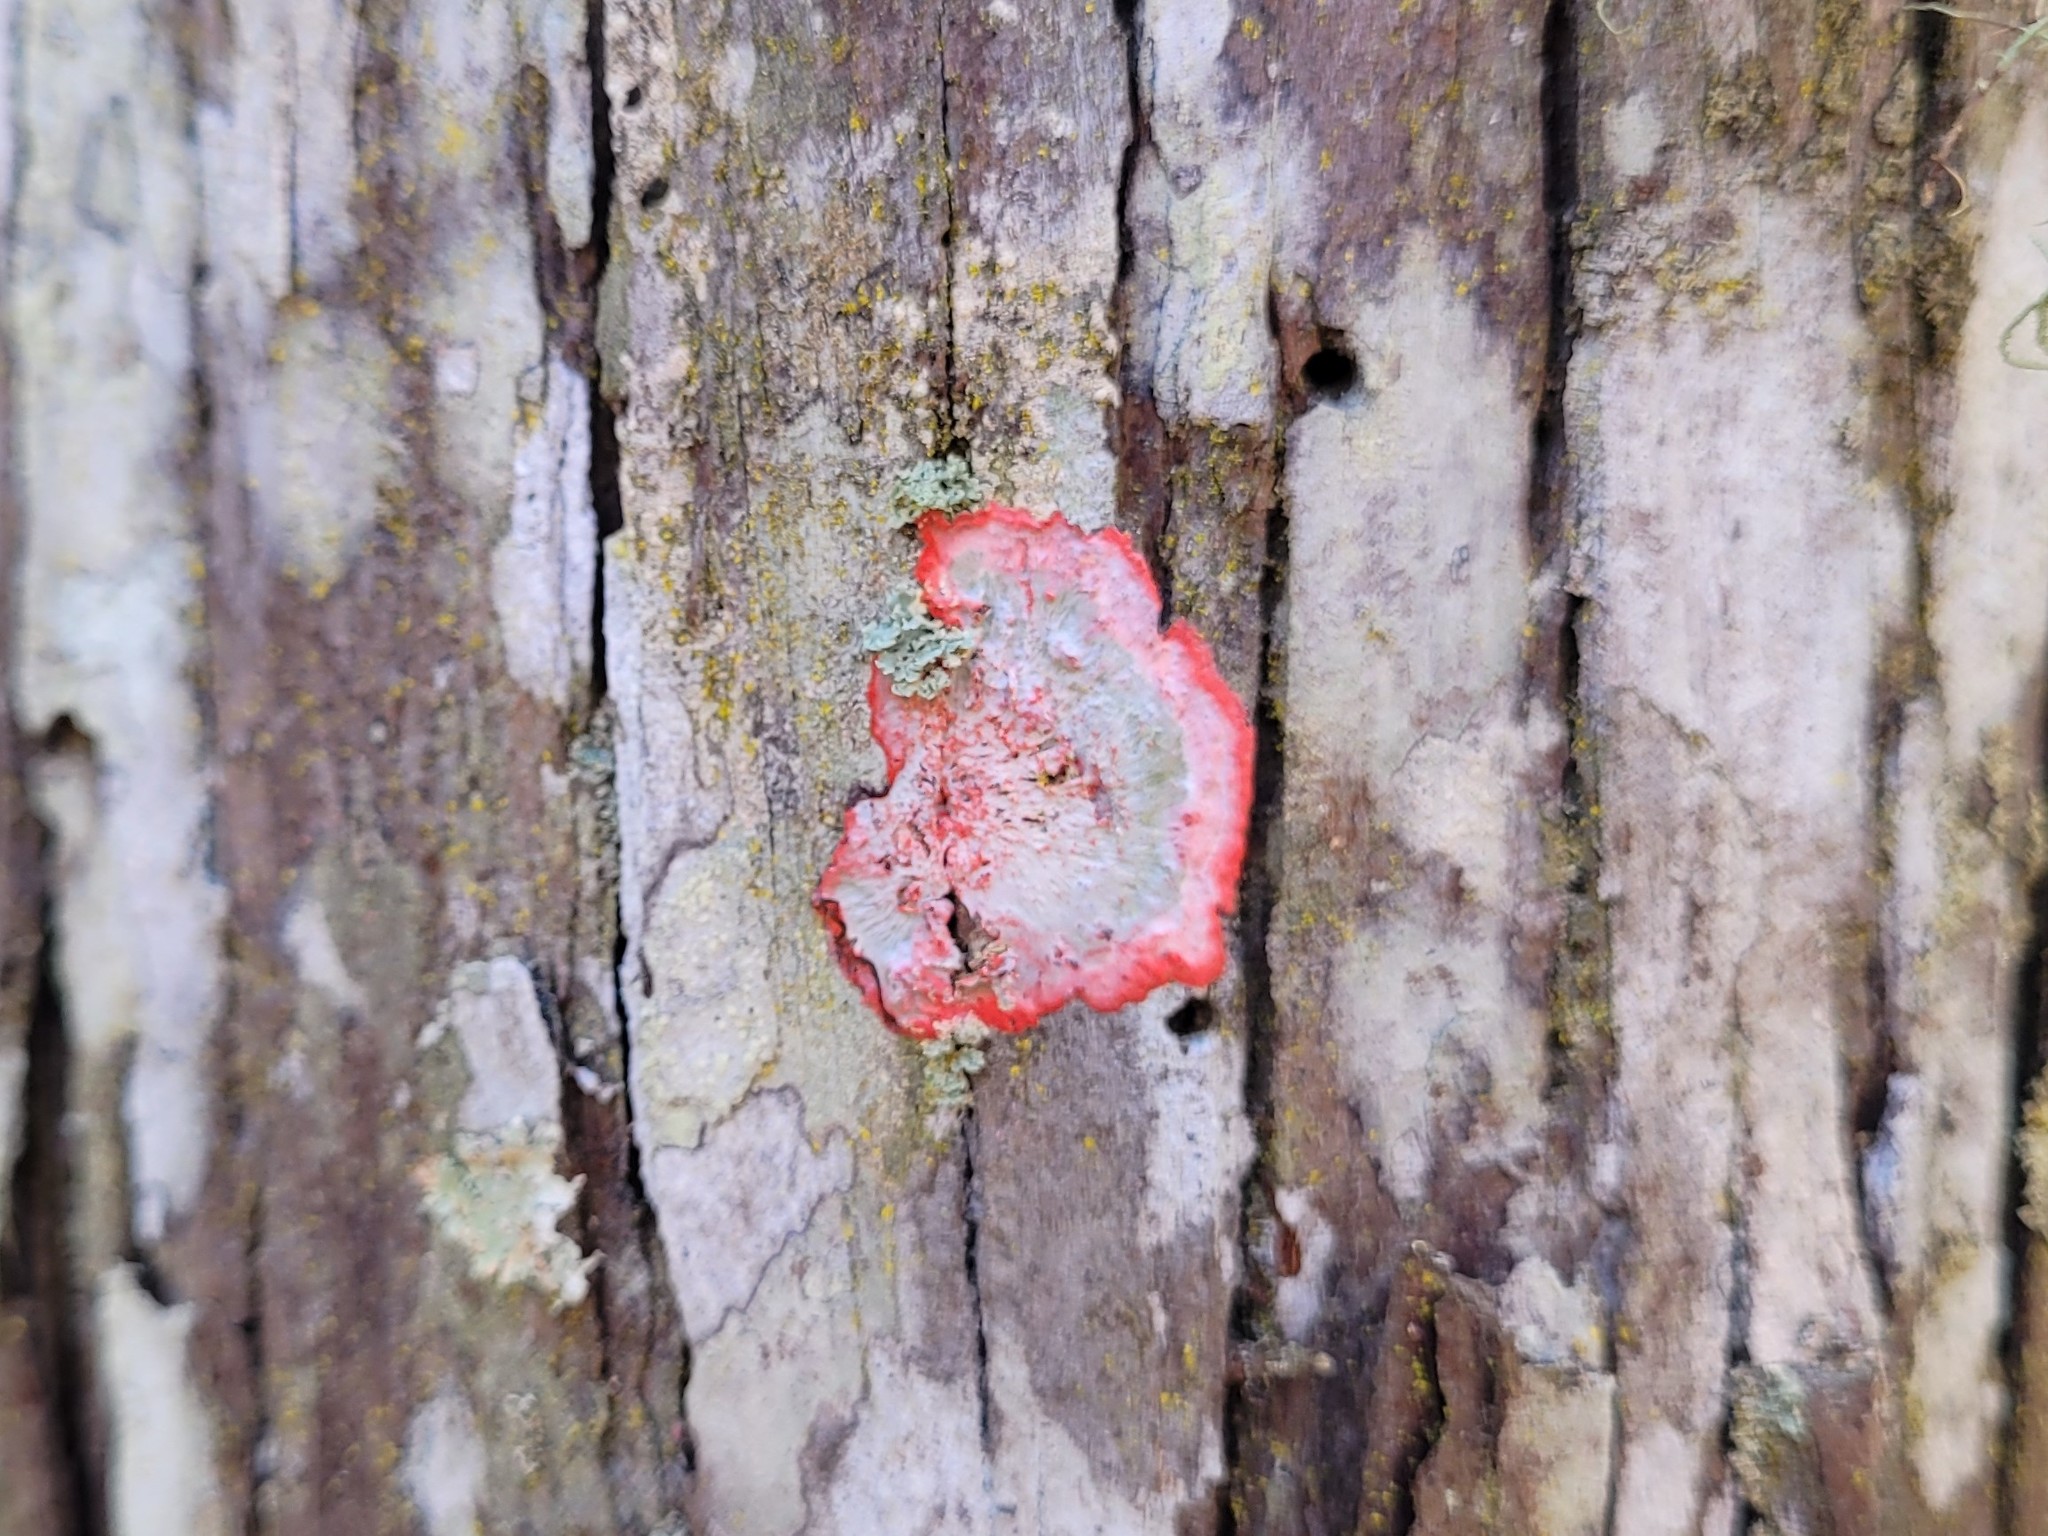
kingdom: Fungi
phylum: Ascomycota
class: Arthoniomycetes
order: Arthoniales
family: Arthoniaceae
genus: Herpothallon
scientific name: Herpothallon rubrocinctum
